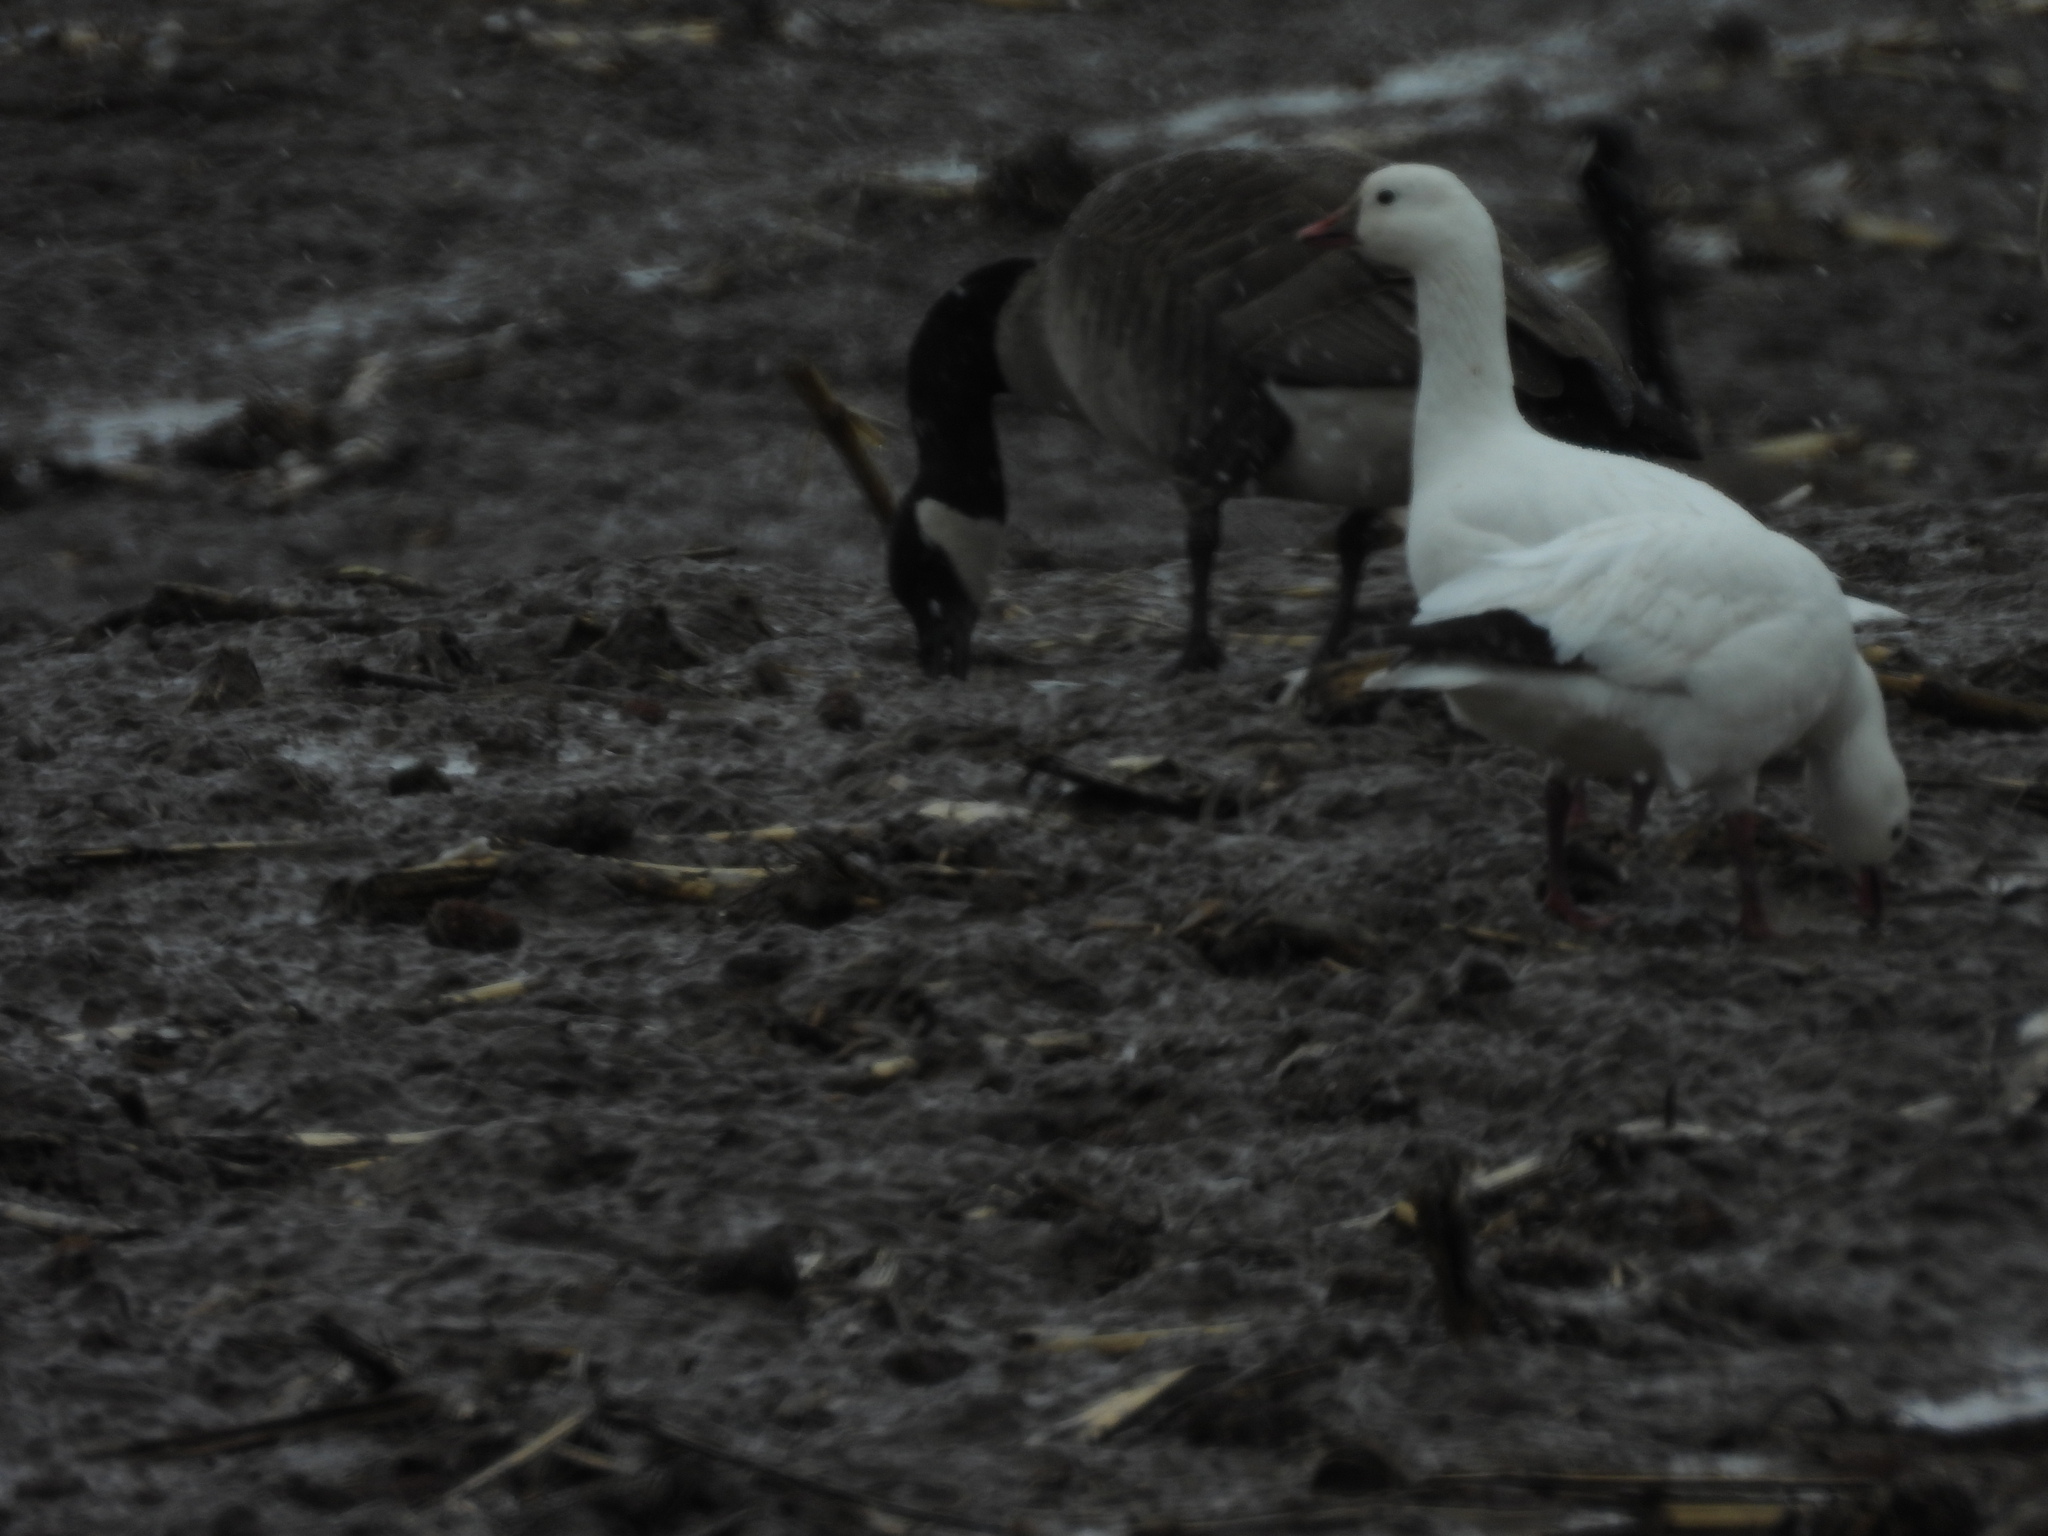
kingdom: Animalia
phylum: Chordata
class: Aves
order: Anseriformes
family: Anatidae
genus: Anser
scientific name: Anser rossii
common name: Ross's goose
